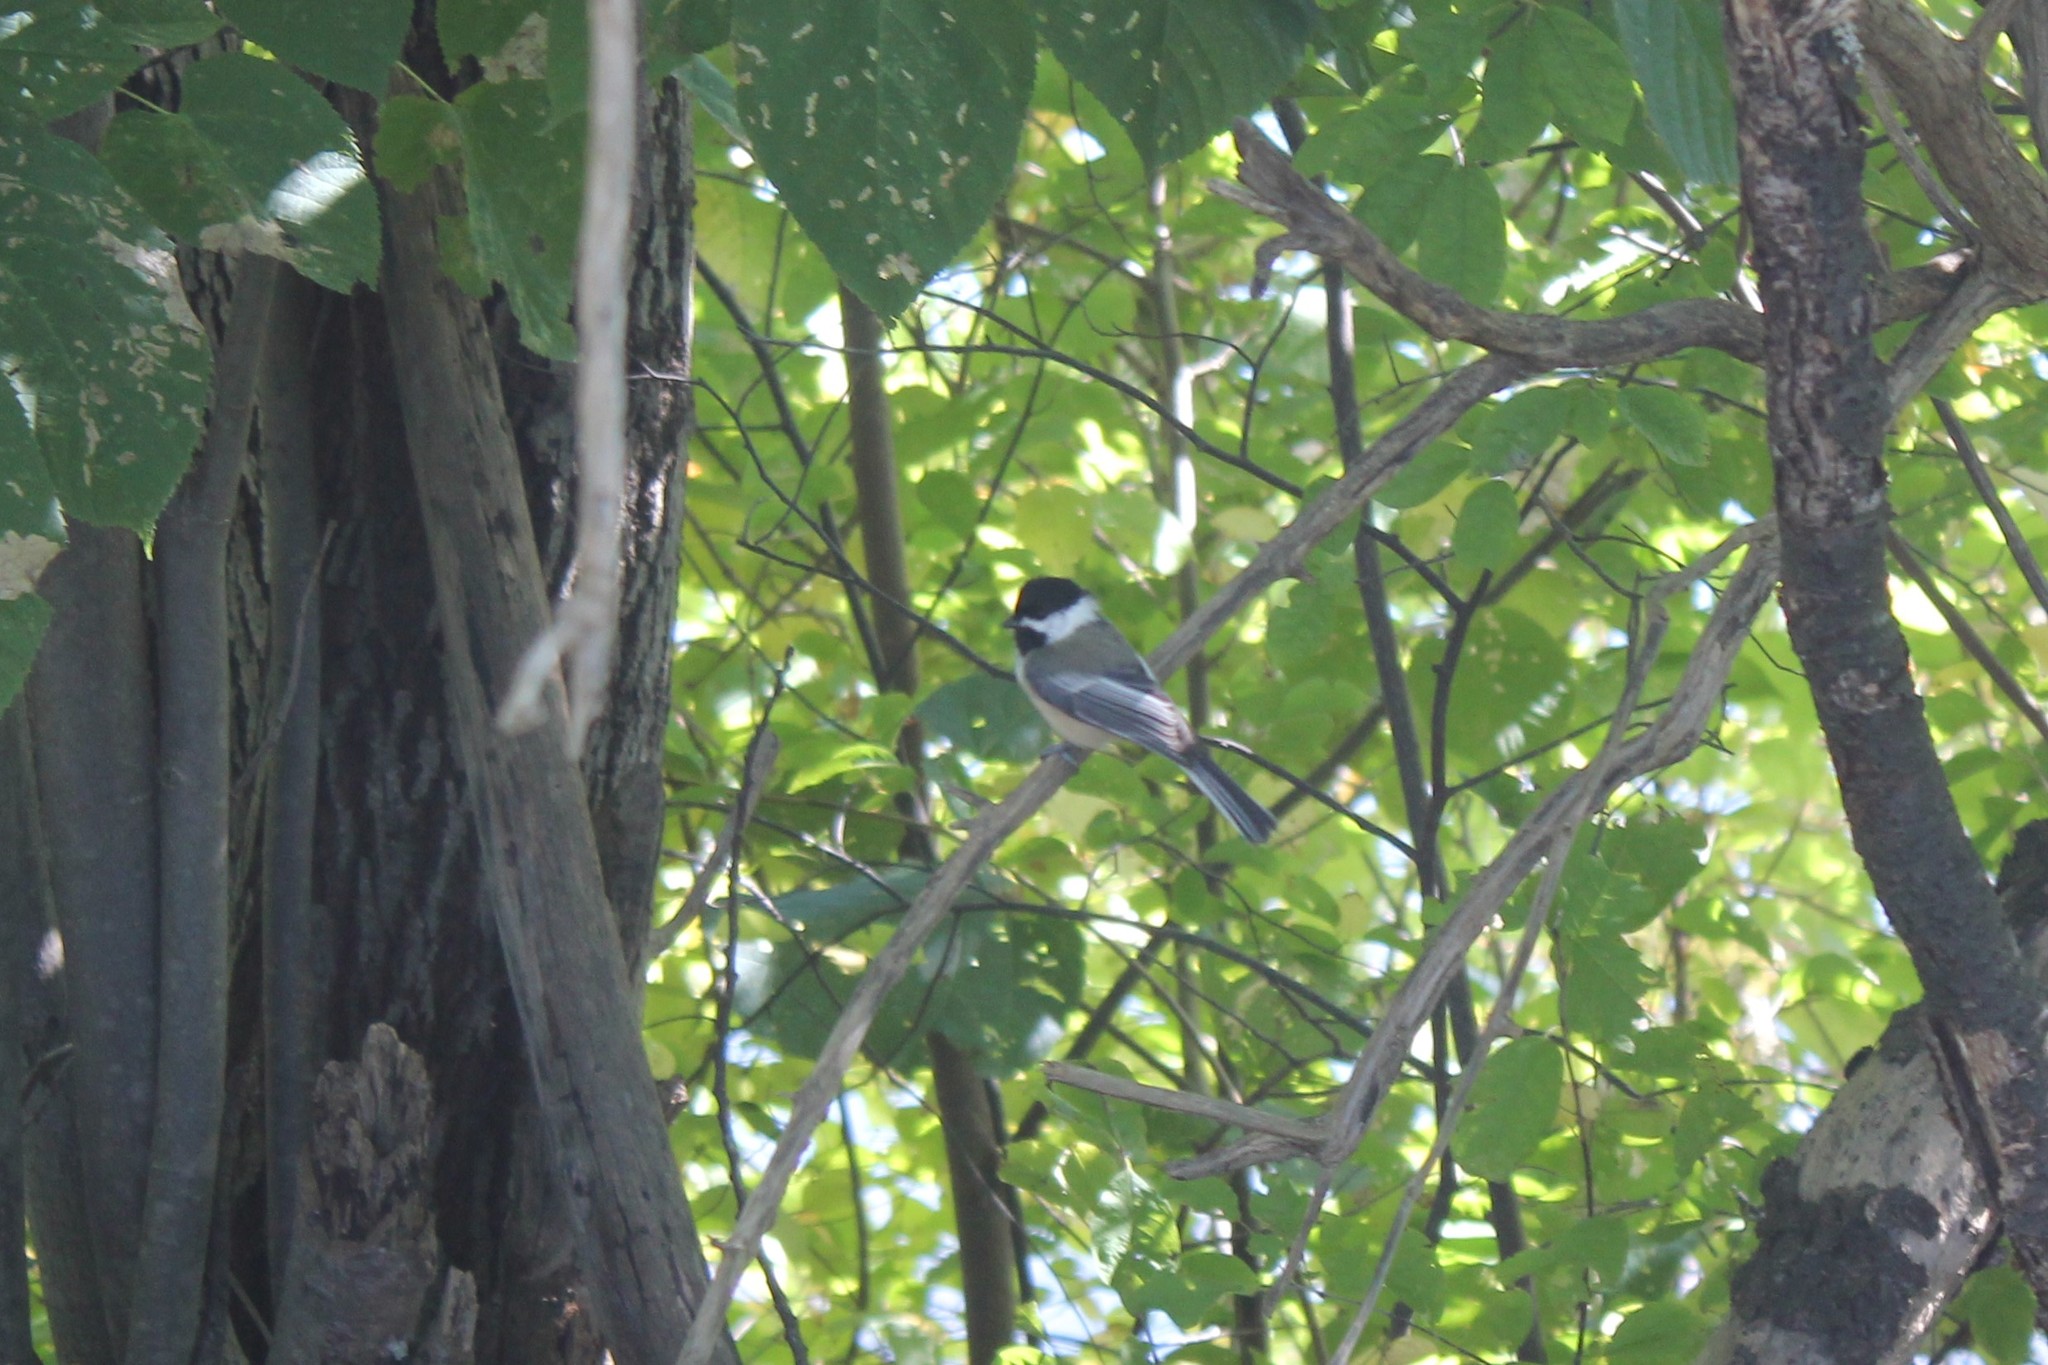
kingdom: Animalia
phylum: Chordata
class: Aves
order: Passeriformes
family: Paridae
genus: Poecile
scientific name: Poecile atricapillus
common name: Black-capped chickadee
